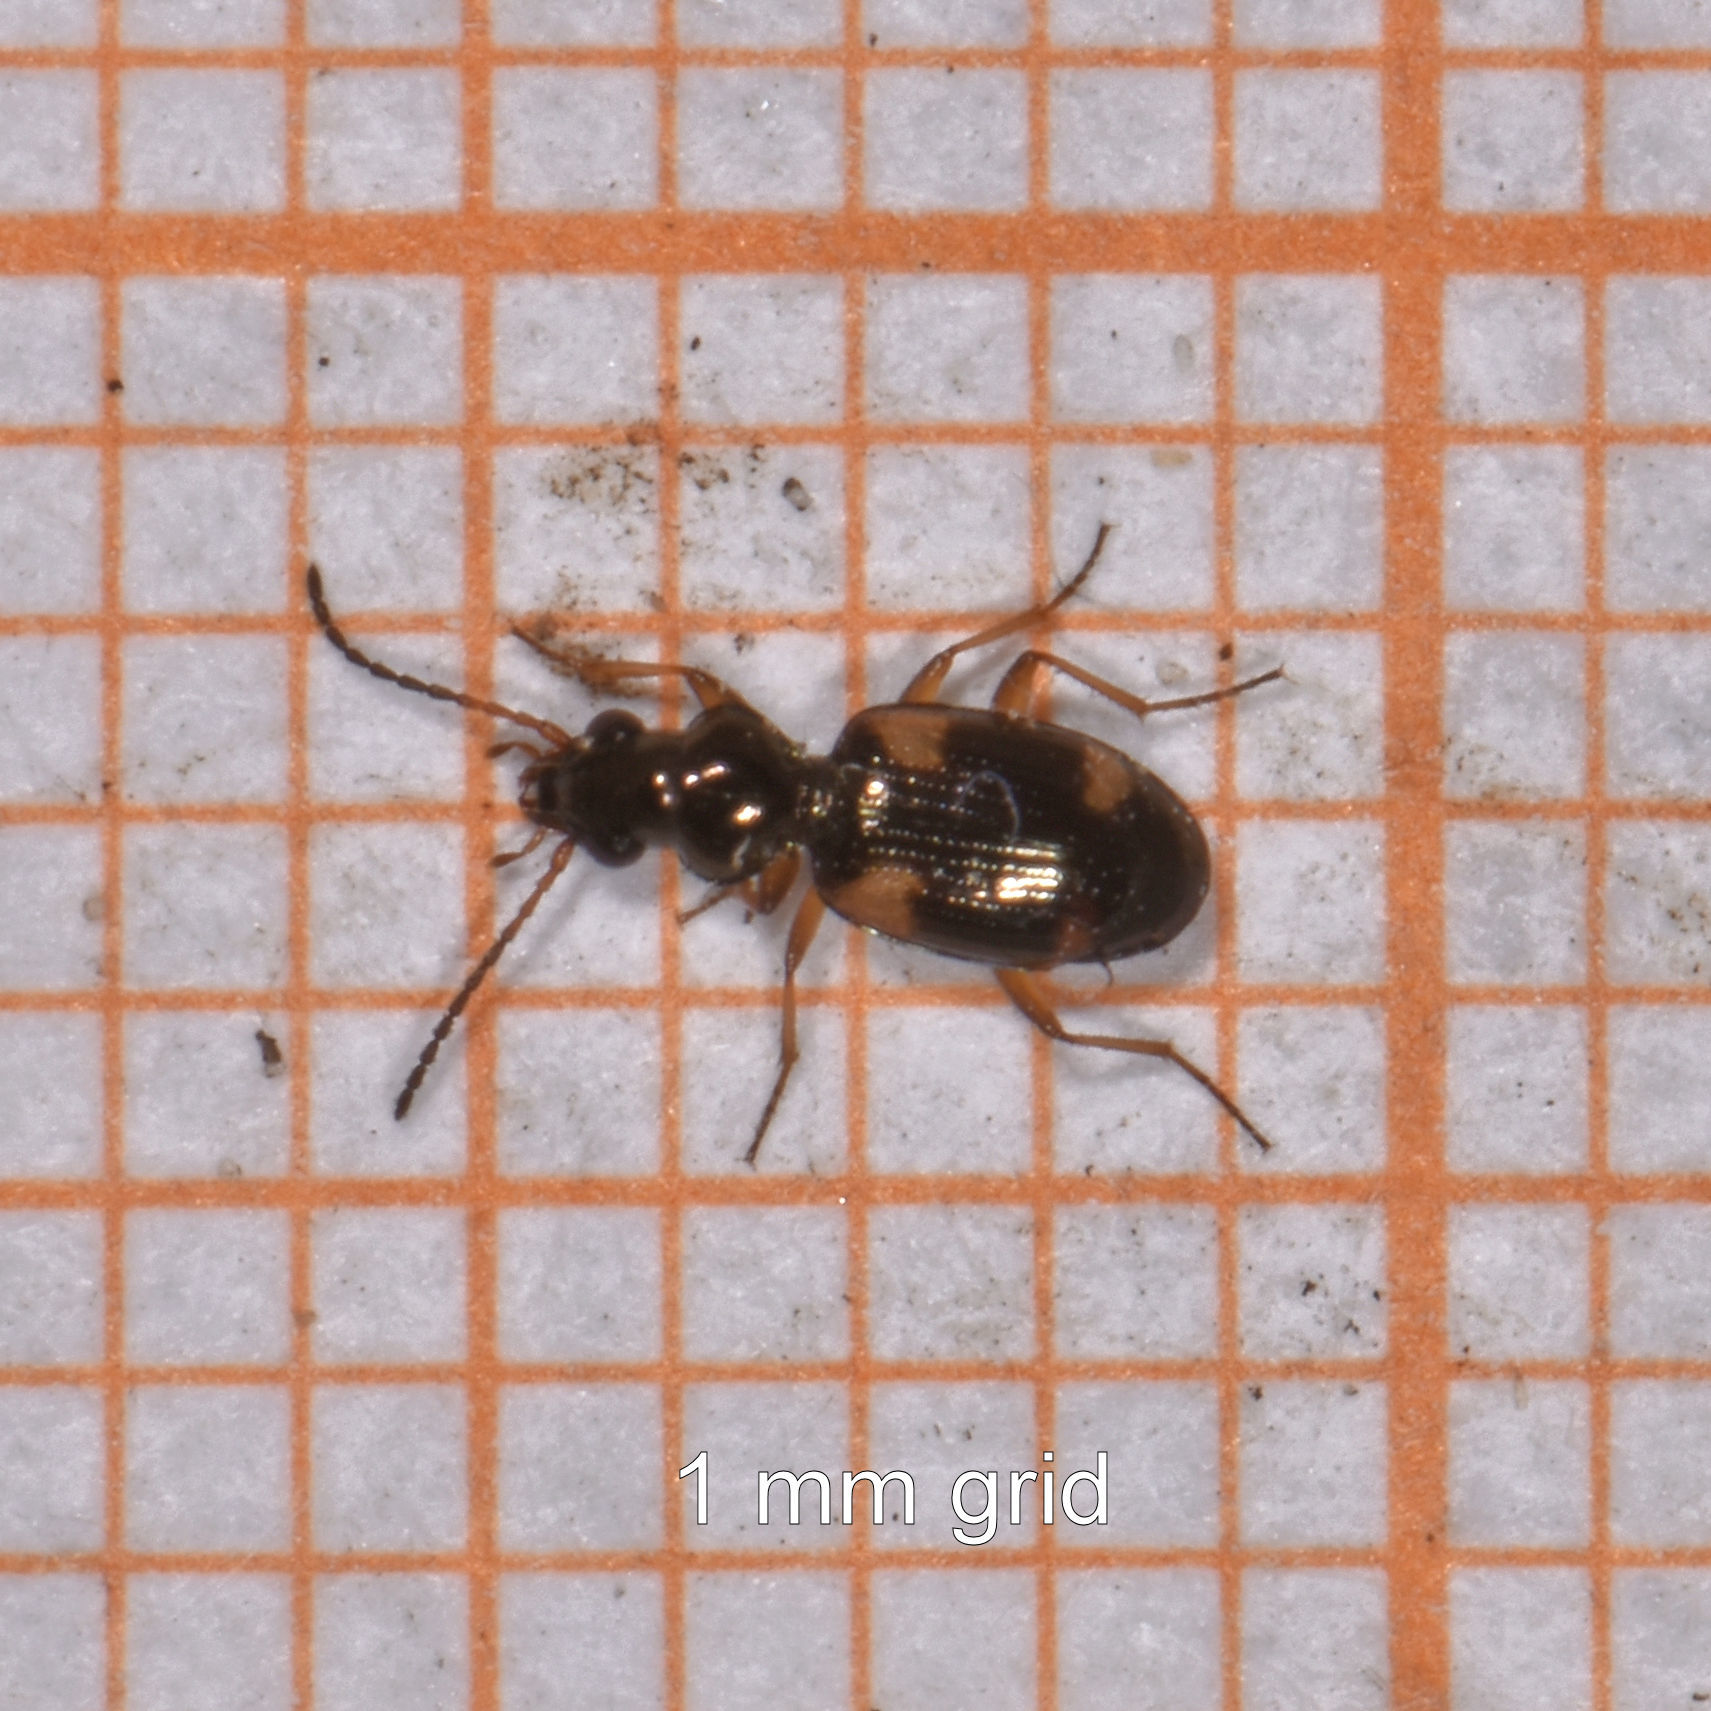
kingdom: Animalia
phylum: Arthropoda
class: Insecta
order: Coleoptera
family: Carabidae
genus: Bembidion
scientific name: Bembidion quadrimaculatum
